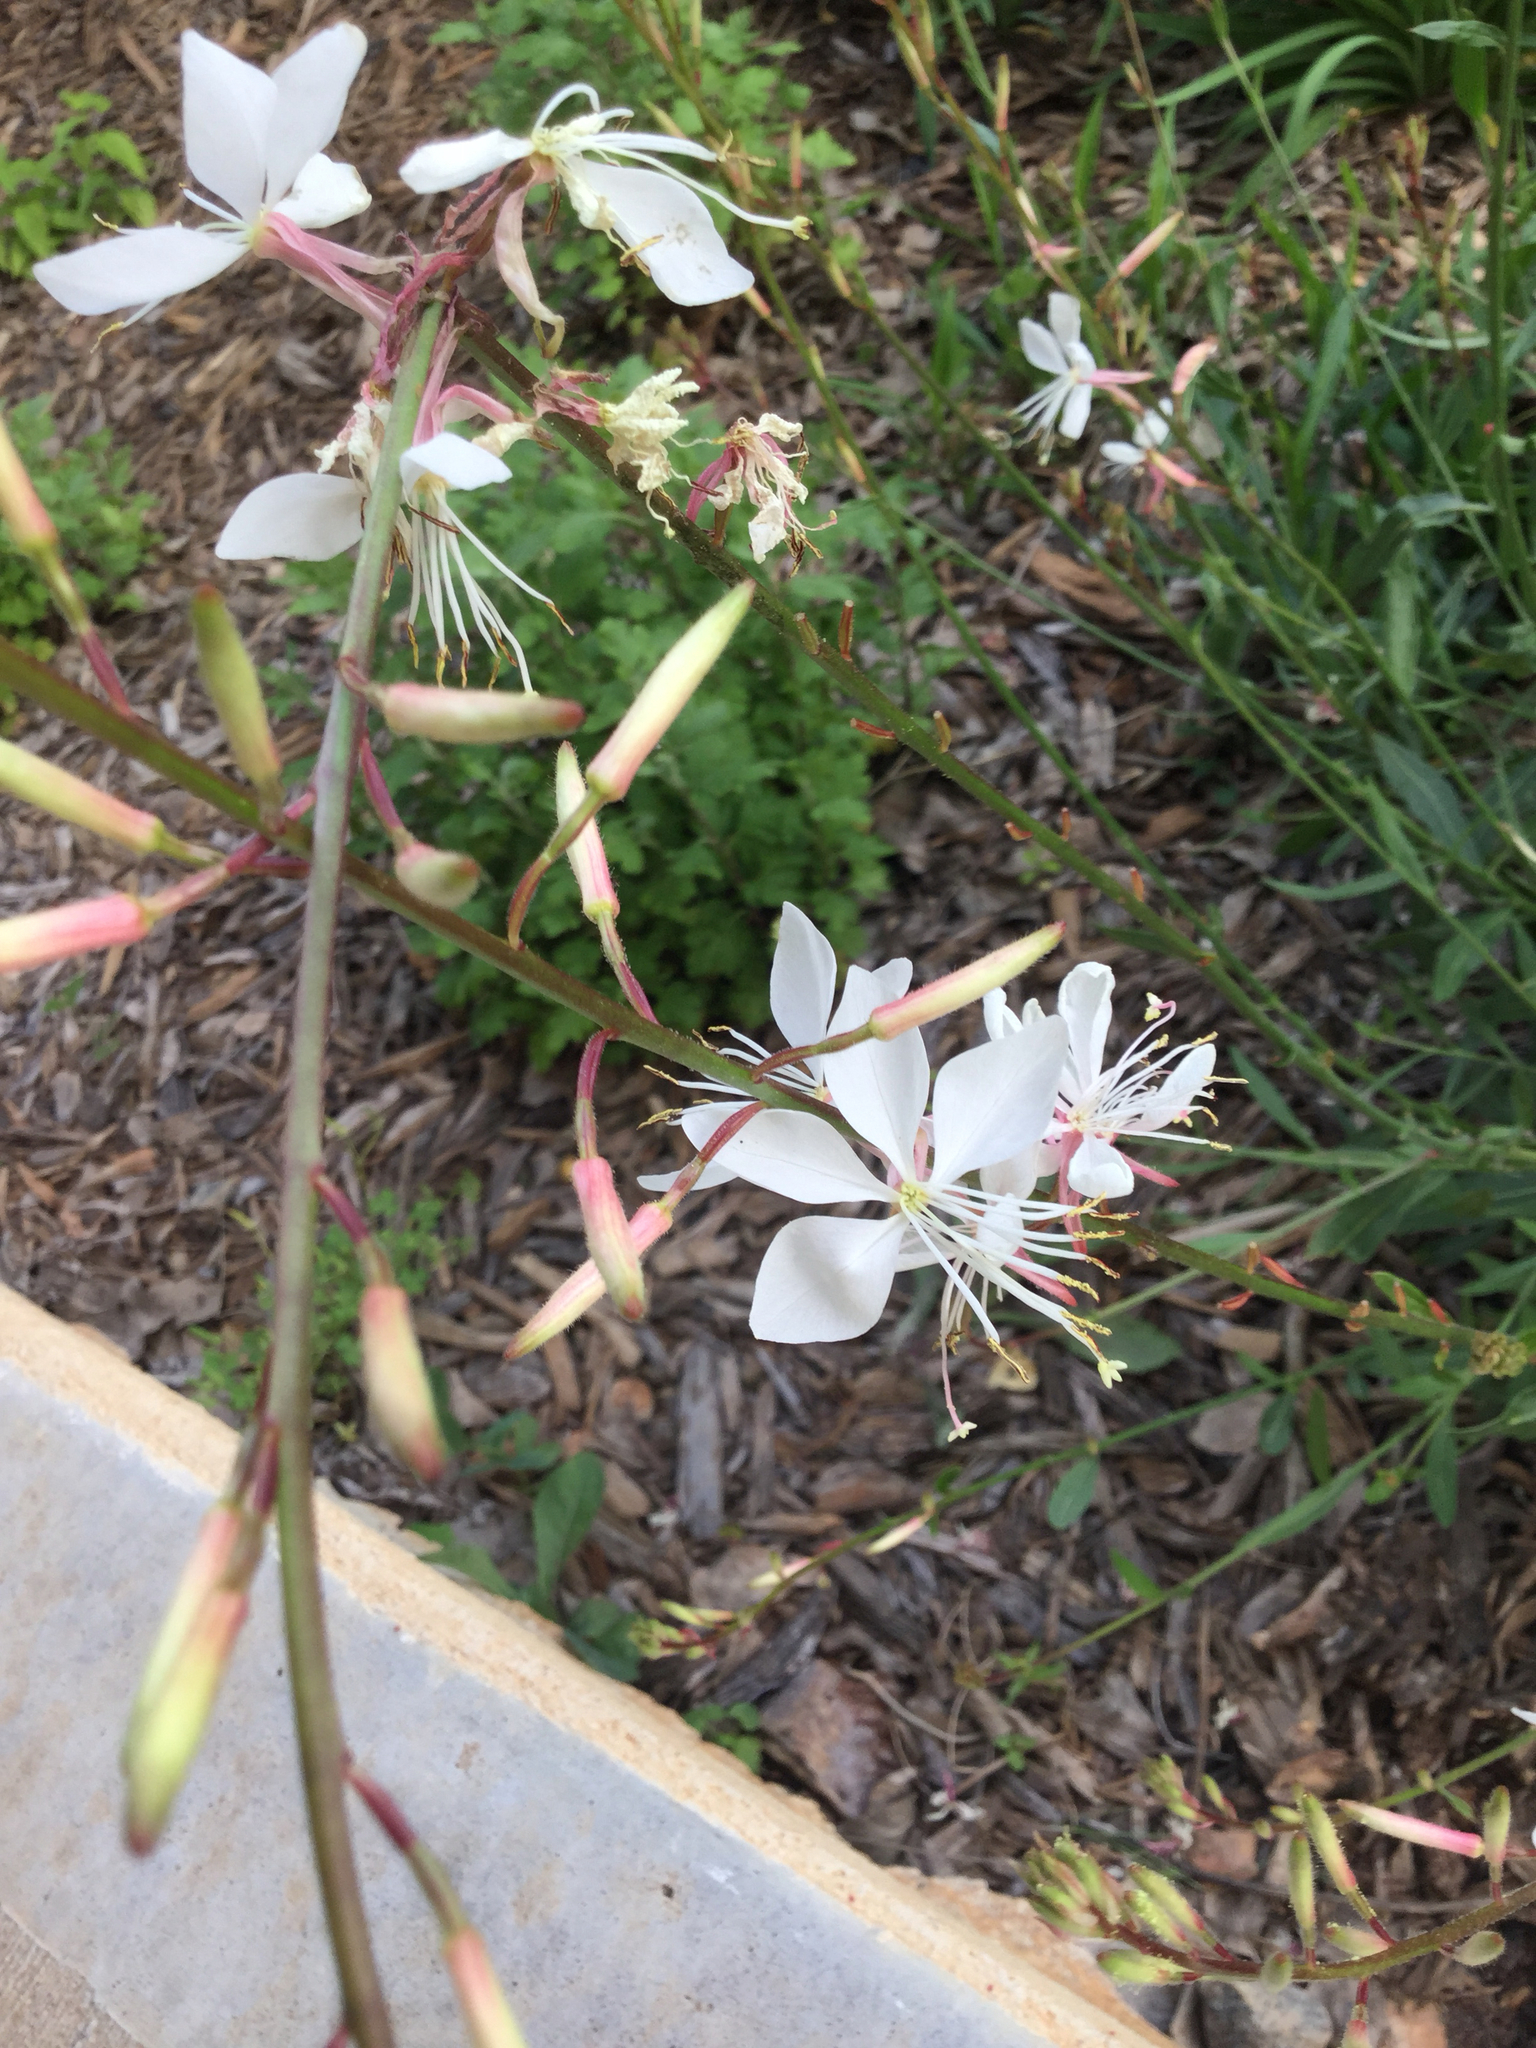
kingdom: Plantae
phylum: Tracheophyta
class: Magnoliopsida
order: Myrtales
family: Onagraceae
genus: Oenothera
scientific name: Oenothera lindheimeri
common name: Lindheimer's beeblossom
